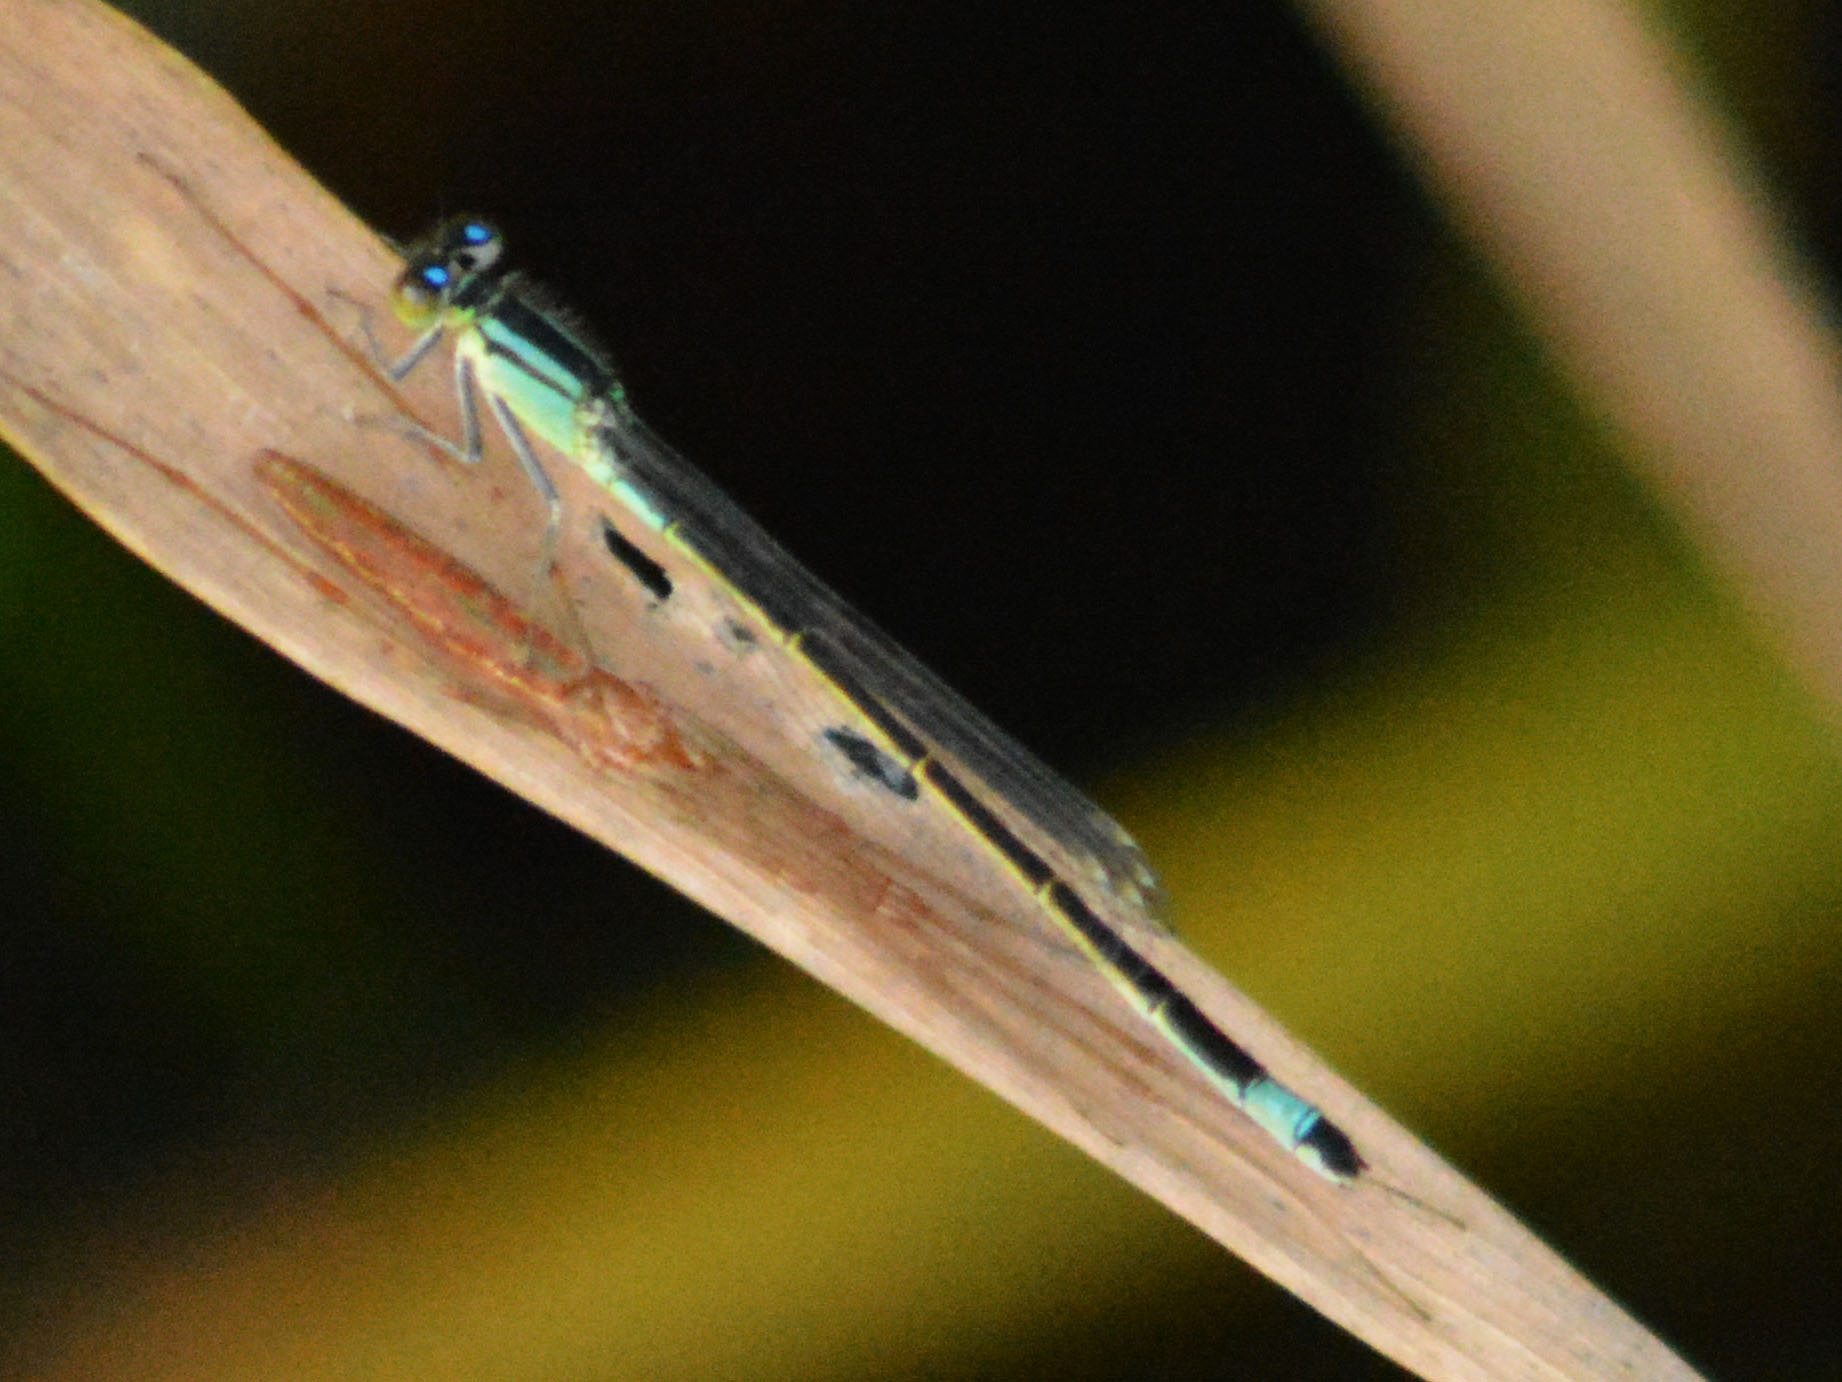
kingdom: Animalia
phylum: Arthropoda
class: Insecta
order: Odonata
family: Coenagrionidae
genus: Ischnura
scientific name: Ischnura elegans
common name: Blue-tailed damselfly
